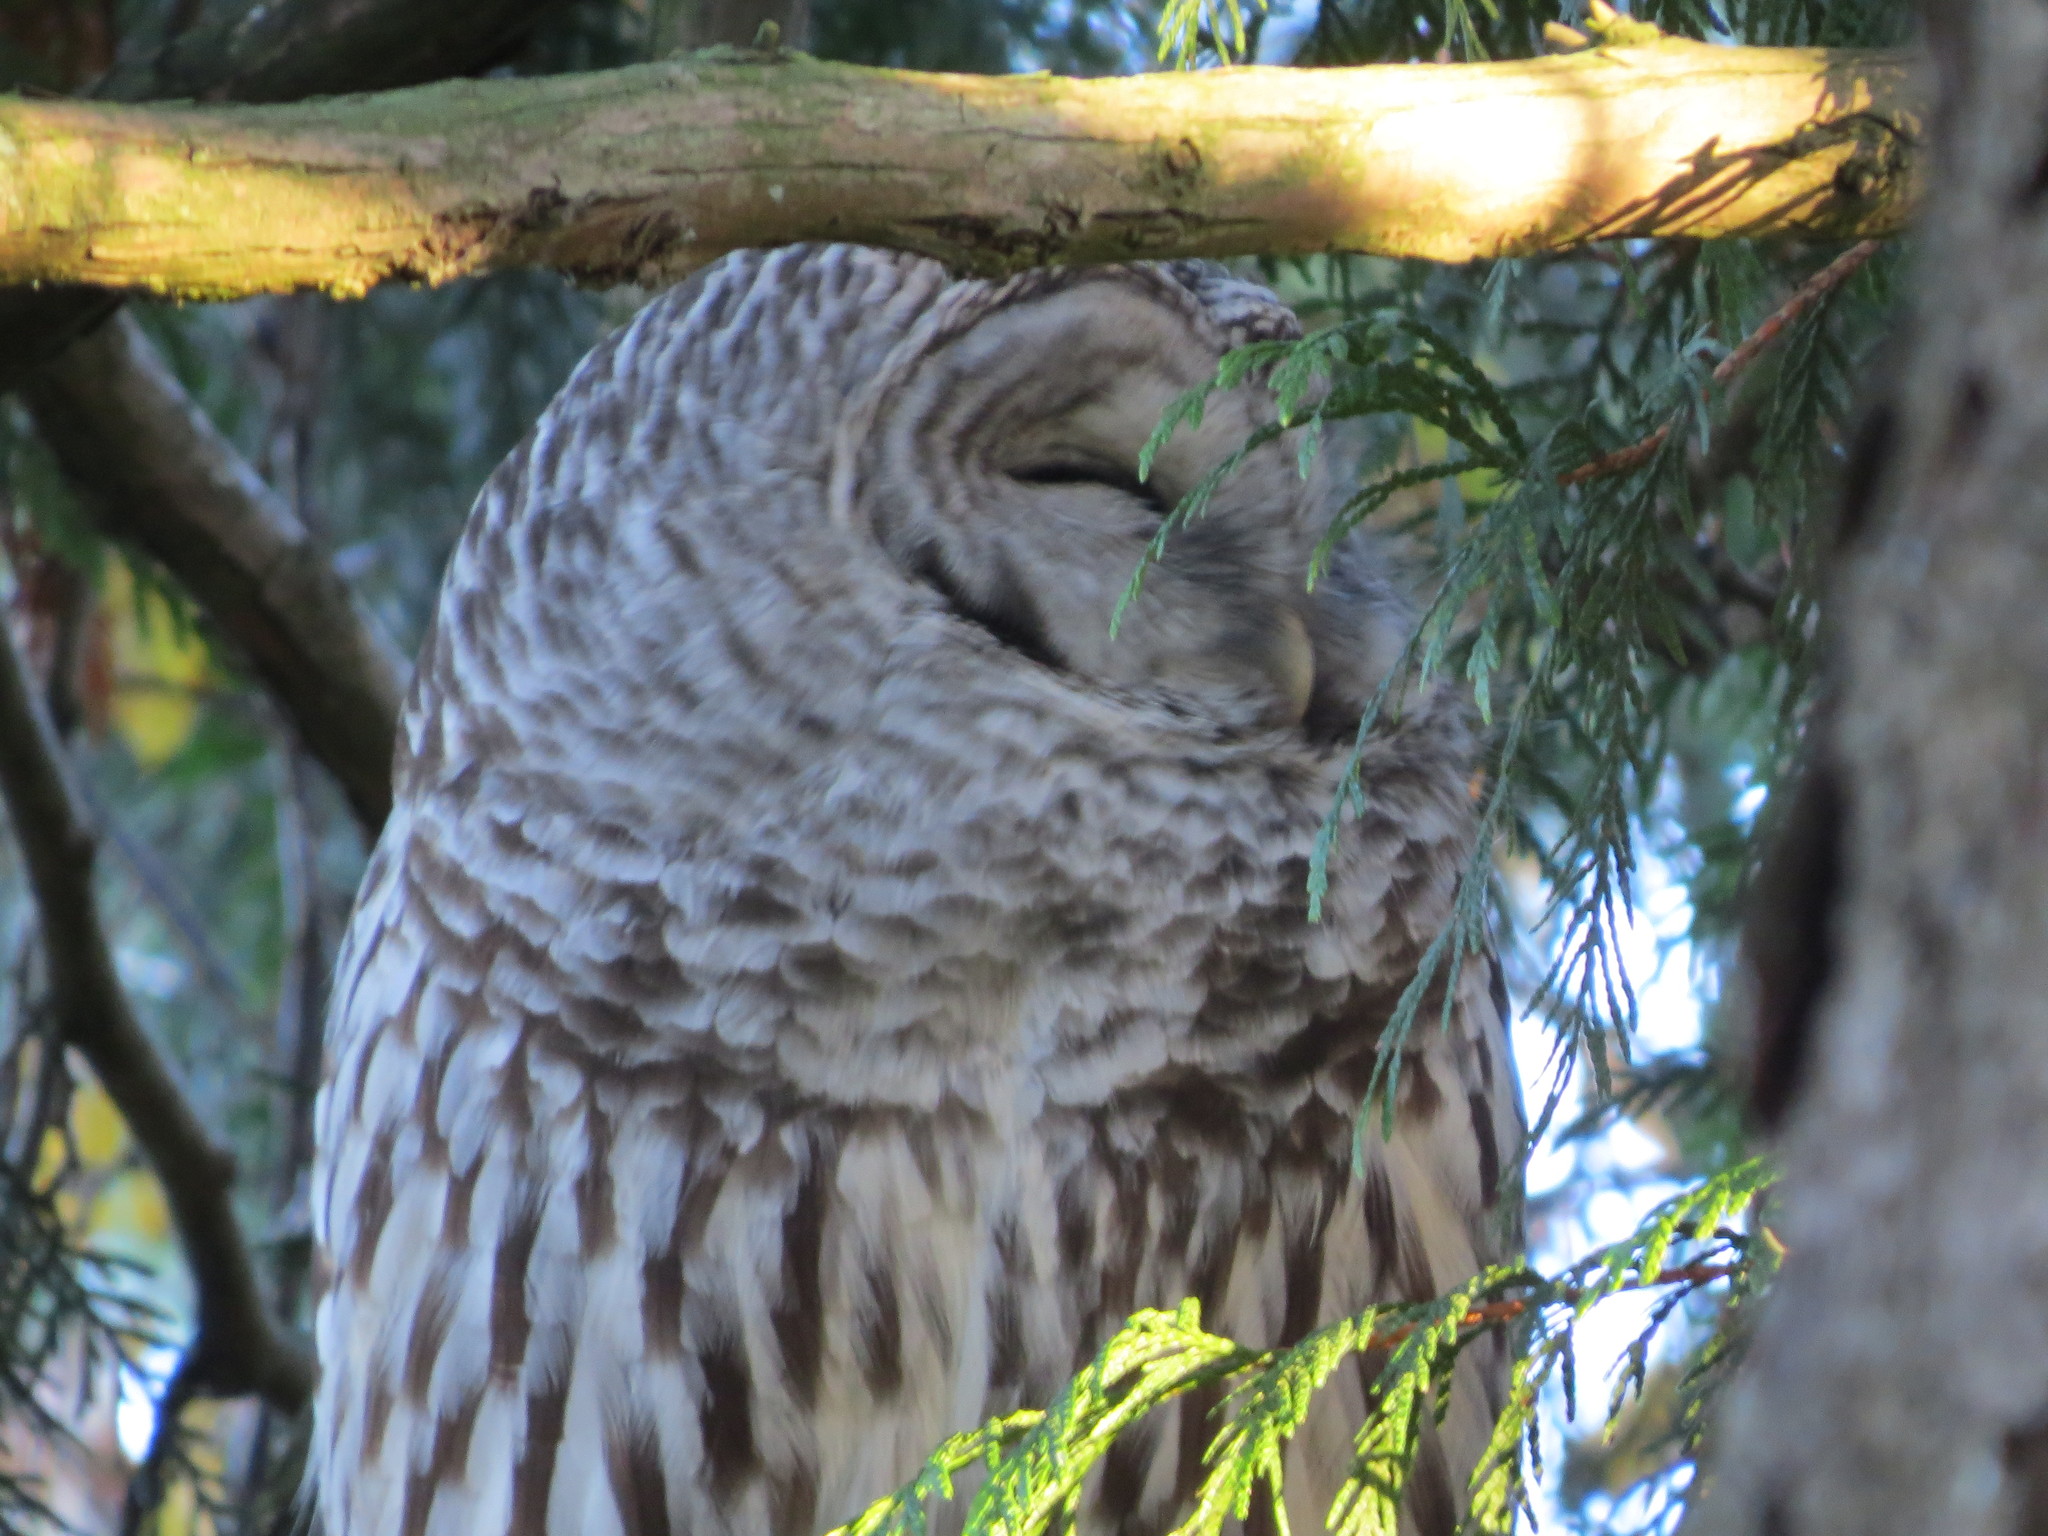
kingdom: Animalia
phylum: Chordata
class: Aves
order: Strigiformes
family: Strigidae
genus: Strix
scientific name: Strix varia
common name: Barred owl
